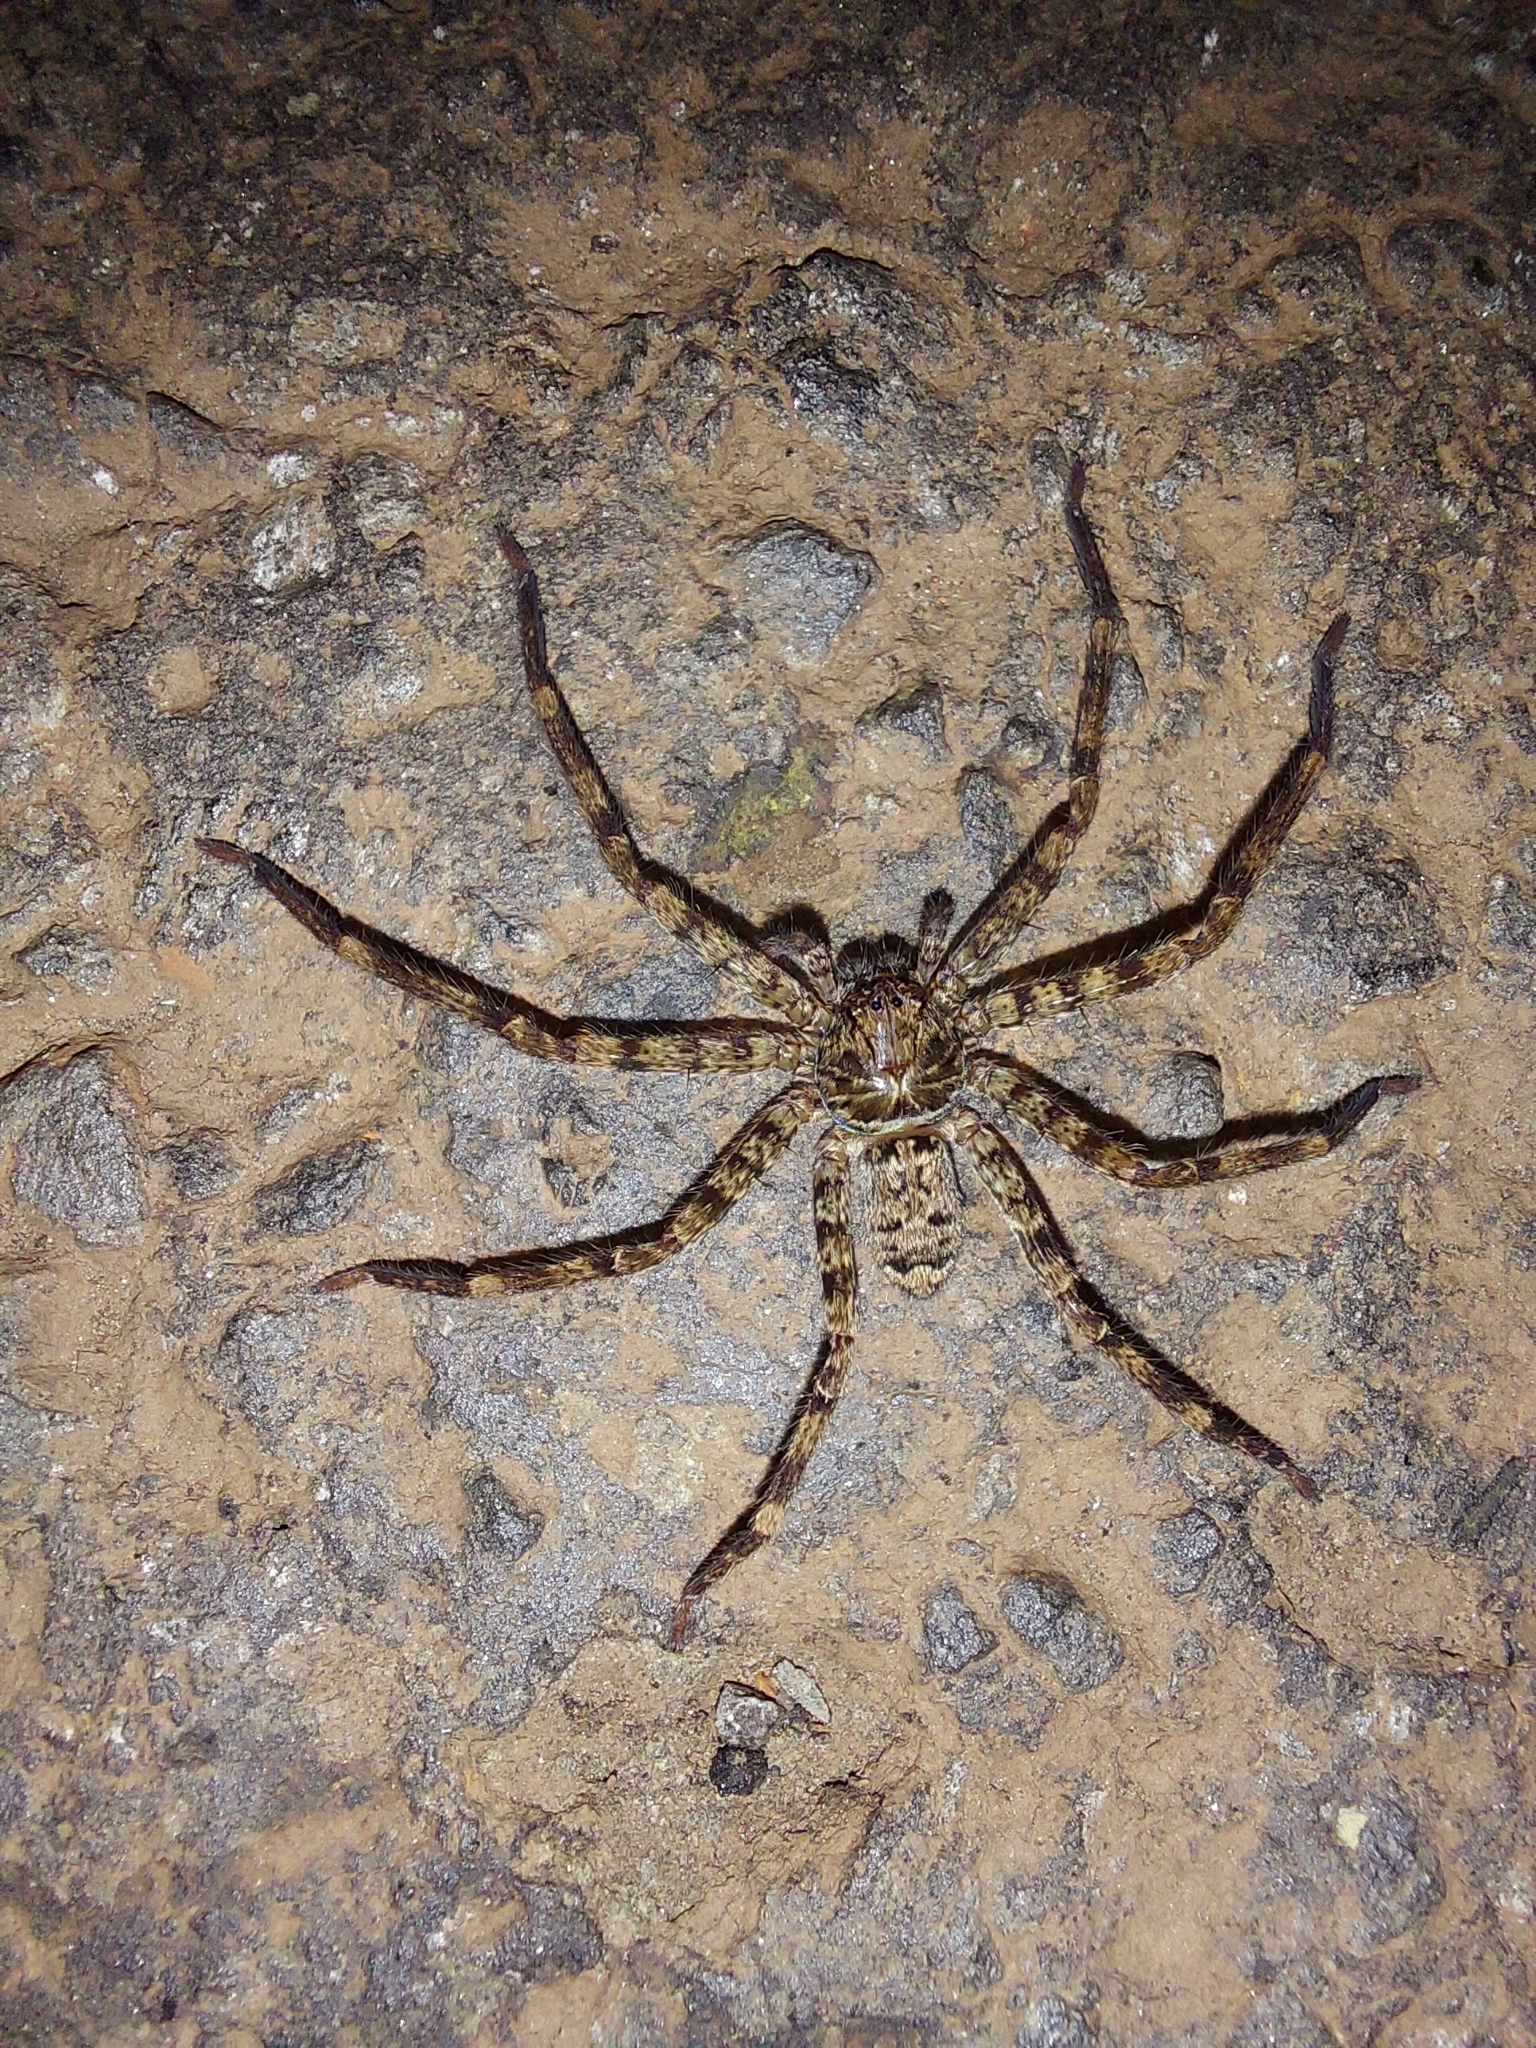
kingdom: Animalia
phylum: Arthropoda
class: Arachnida
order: Araneae
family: Sparassidae
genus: Heteropoda
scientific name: Heteropoda venatoria
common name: Huntsman spider
